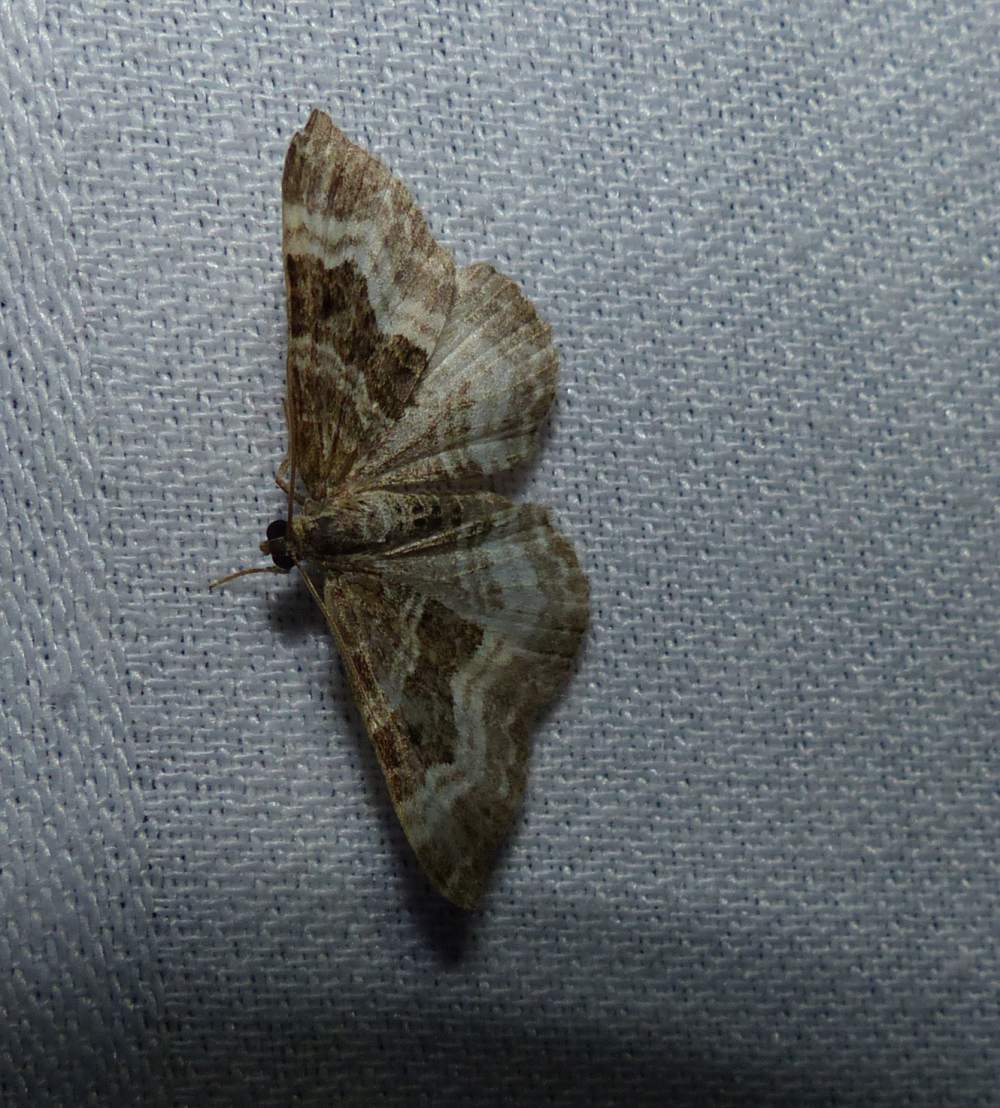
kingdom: Animalia
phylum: Arthropoda
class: Insecta
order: Lepidoptera
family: Geometridae
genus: Epirrhoe
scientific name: Epirrhoe alternata
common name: Common carpet
